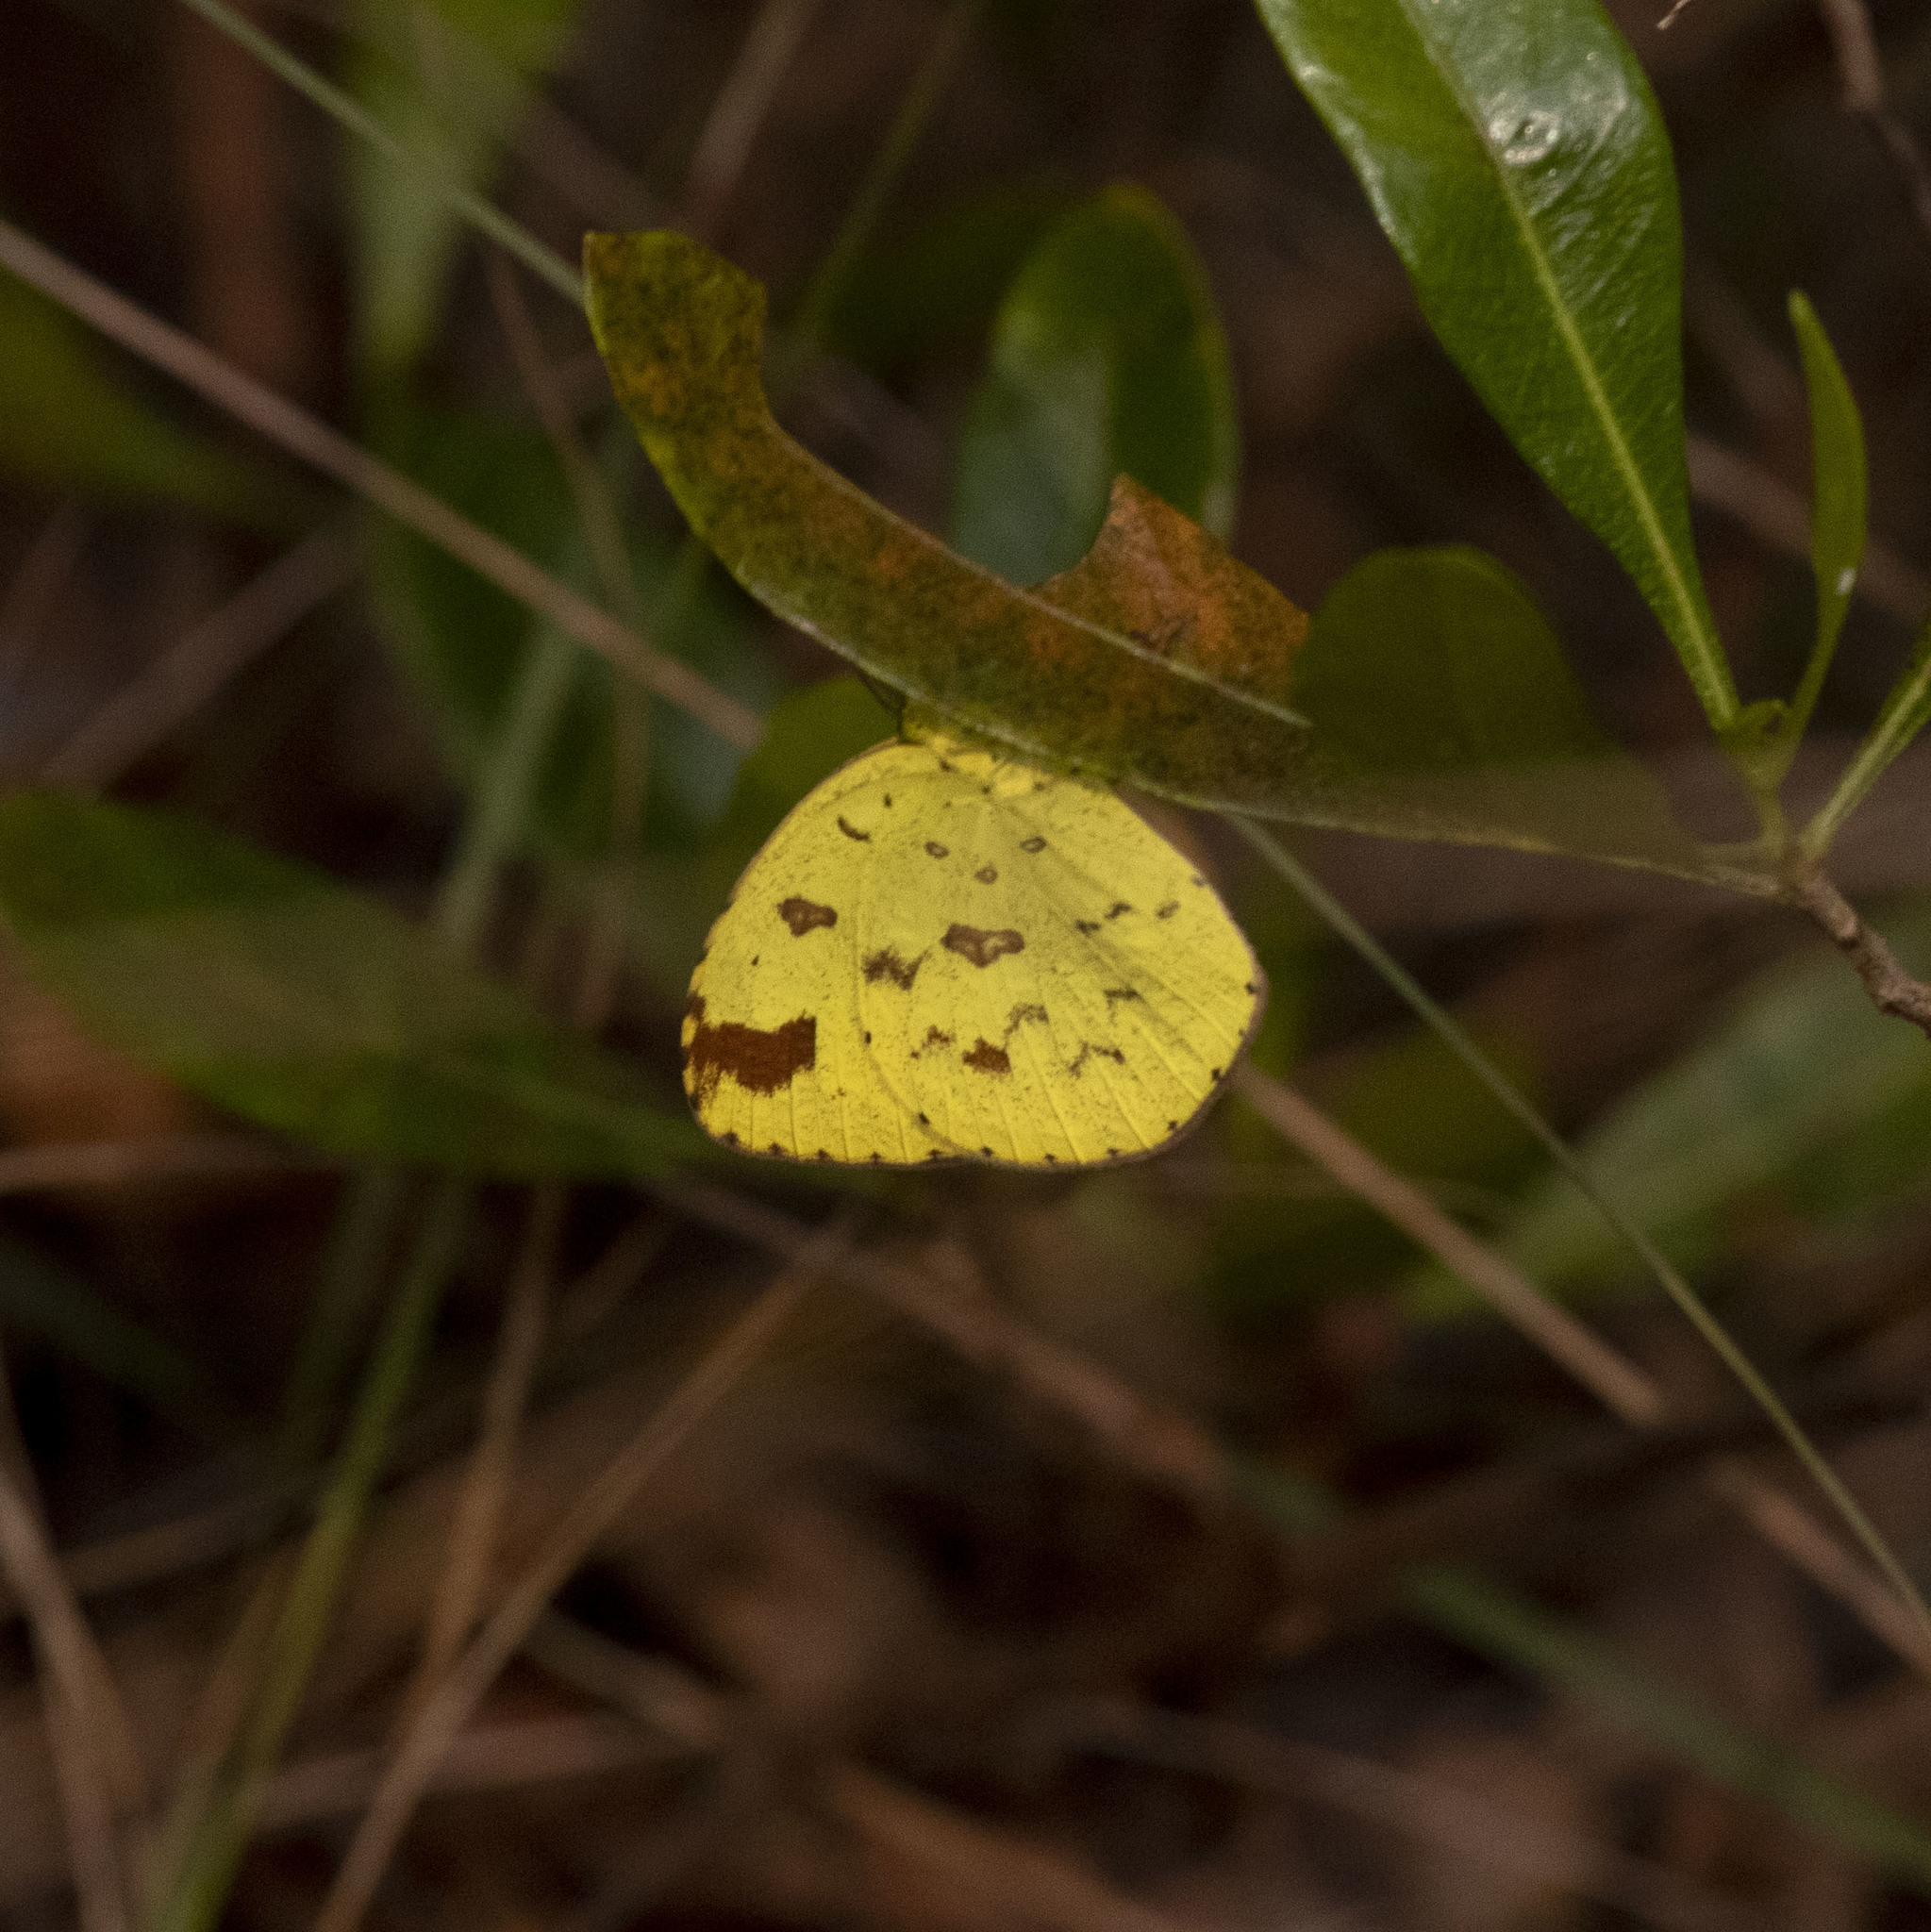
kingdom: Animalia
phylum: Arthropoda
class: Insecta
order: Lepidoptera
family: Pieridae
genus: Eurema
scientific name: Eurema hecabe
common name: Pale grass yellow
